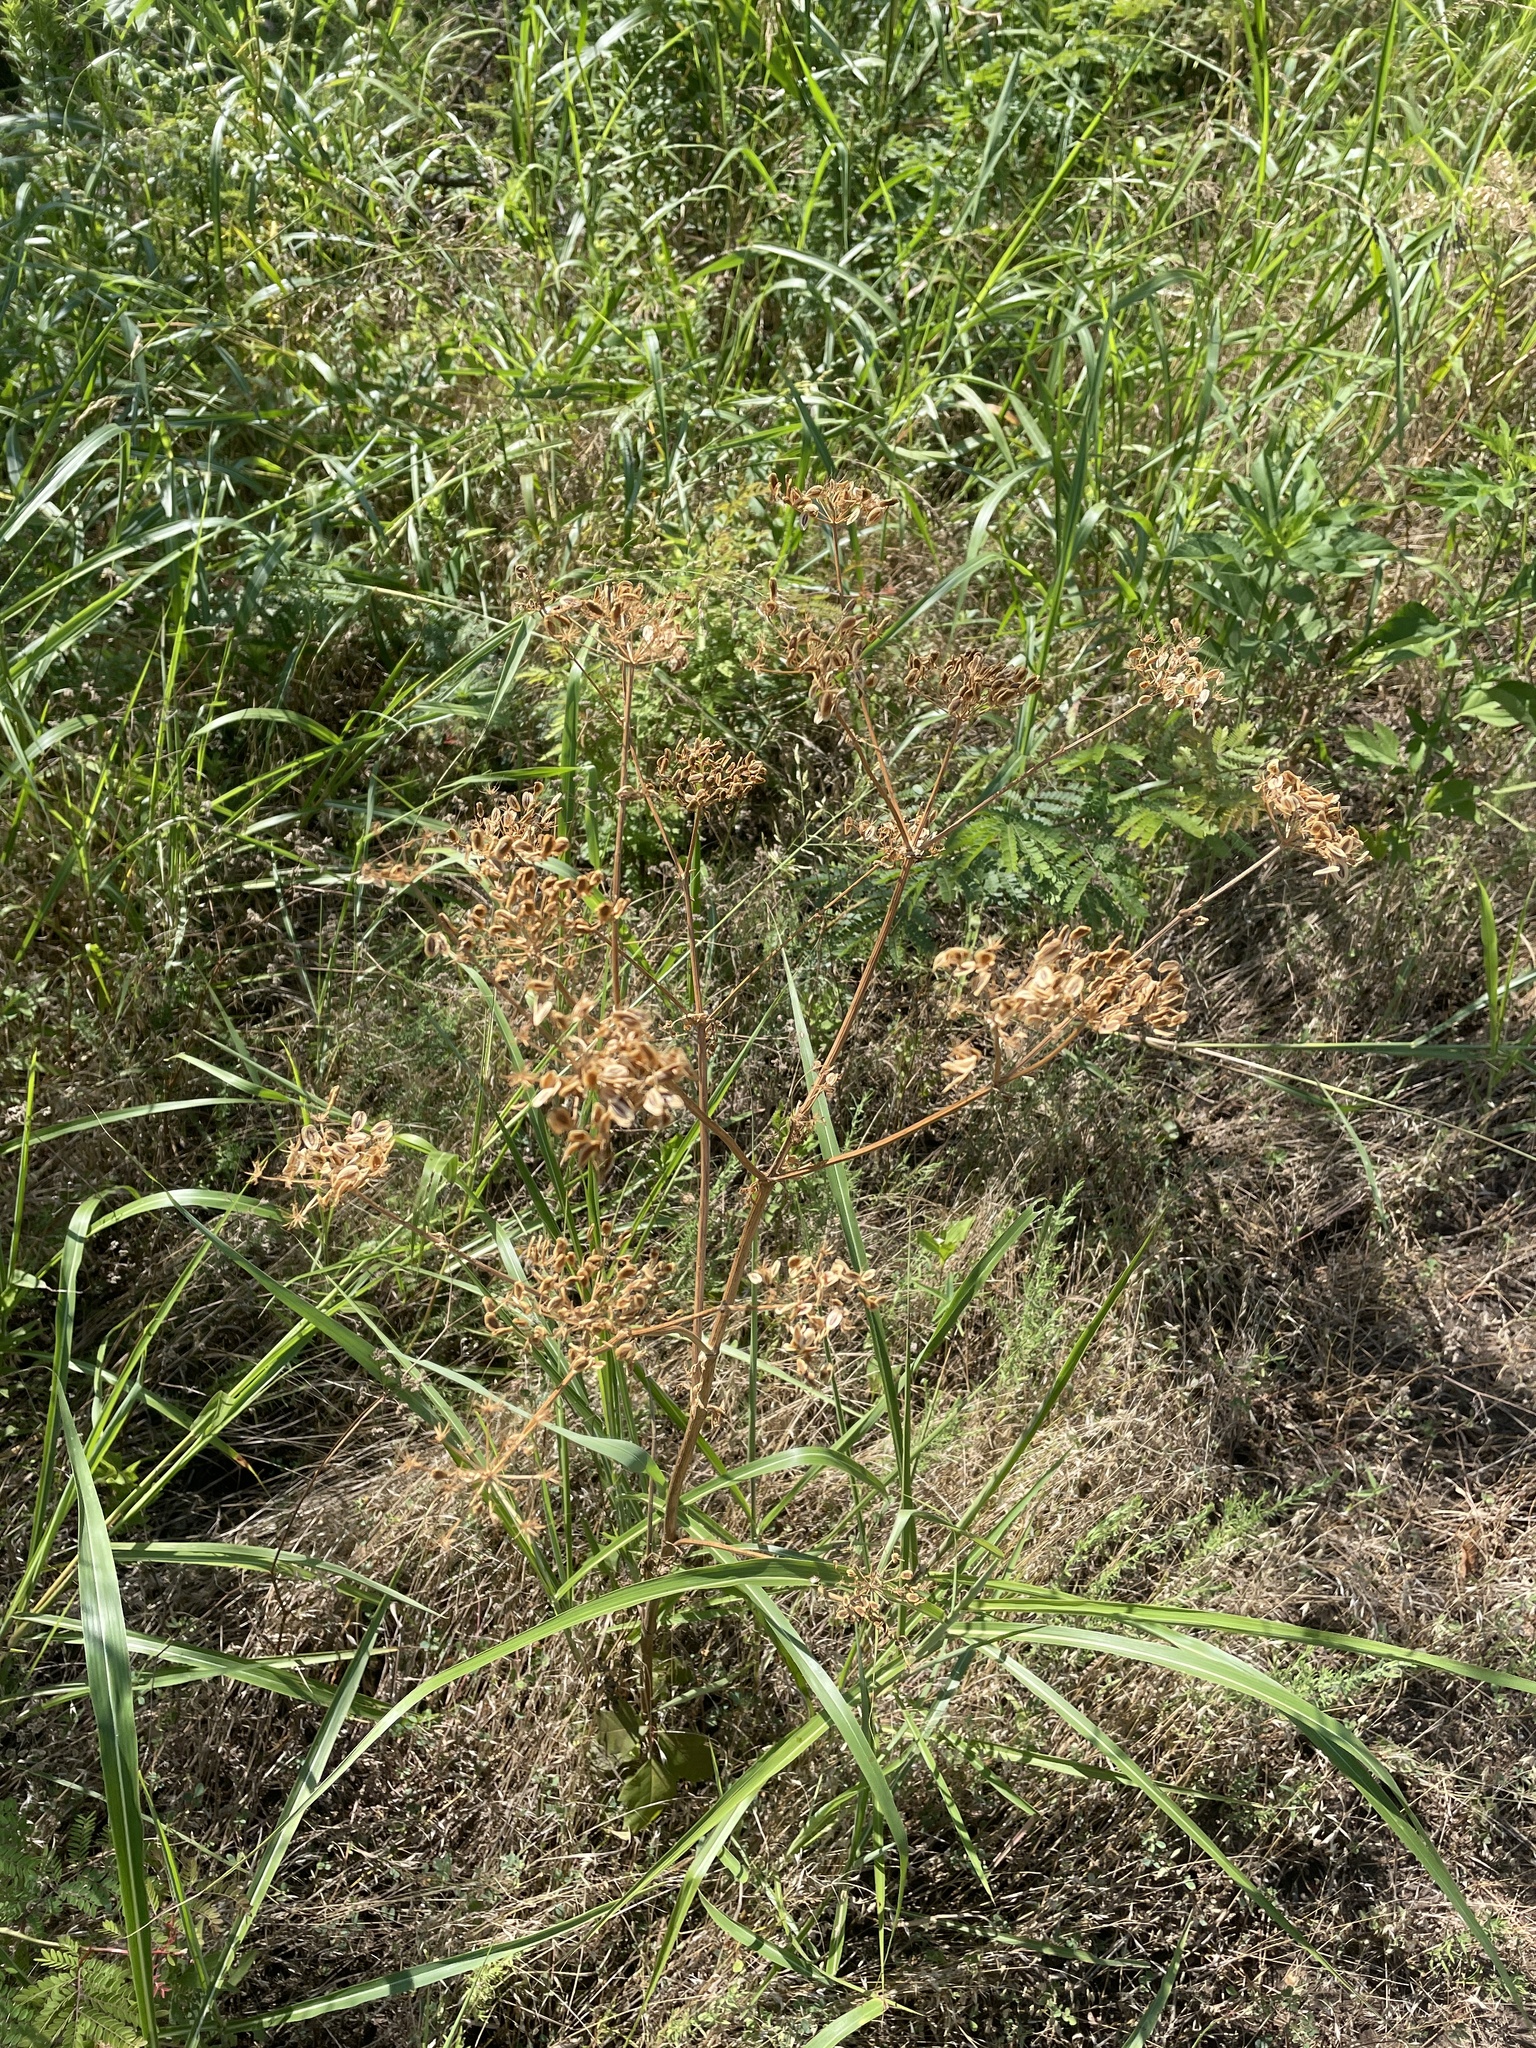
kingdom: Plantae
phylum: Tracheophyta
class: Magnoliopsida
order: Apiales
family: Apiaceae
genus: Polytaenia
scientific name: Polytaenia texana
